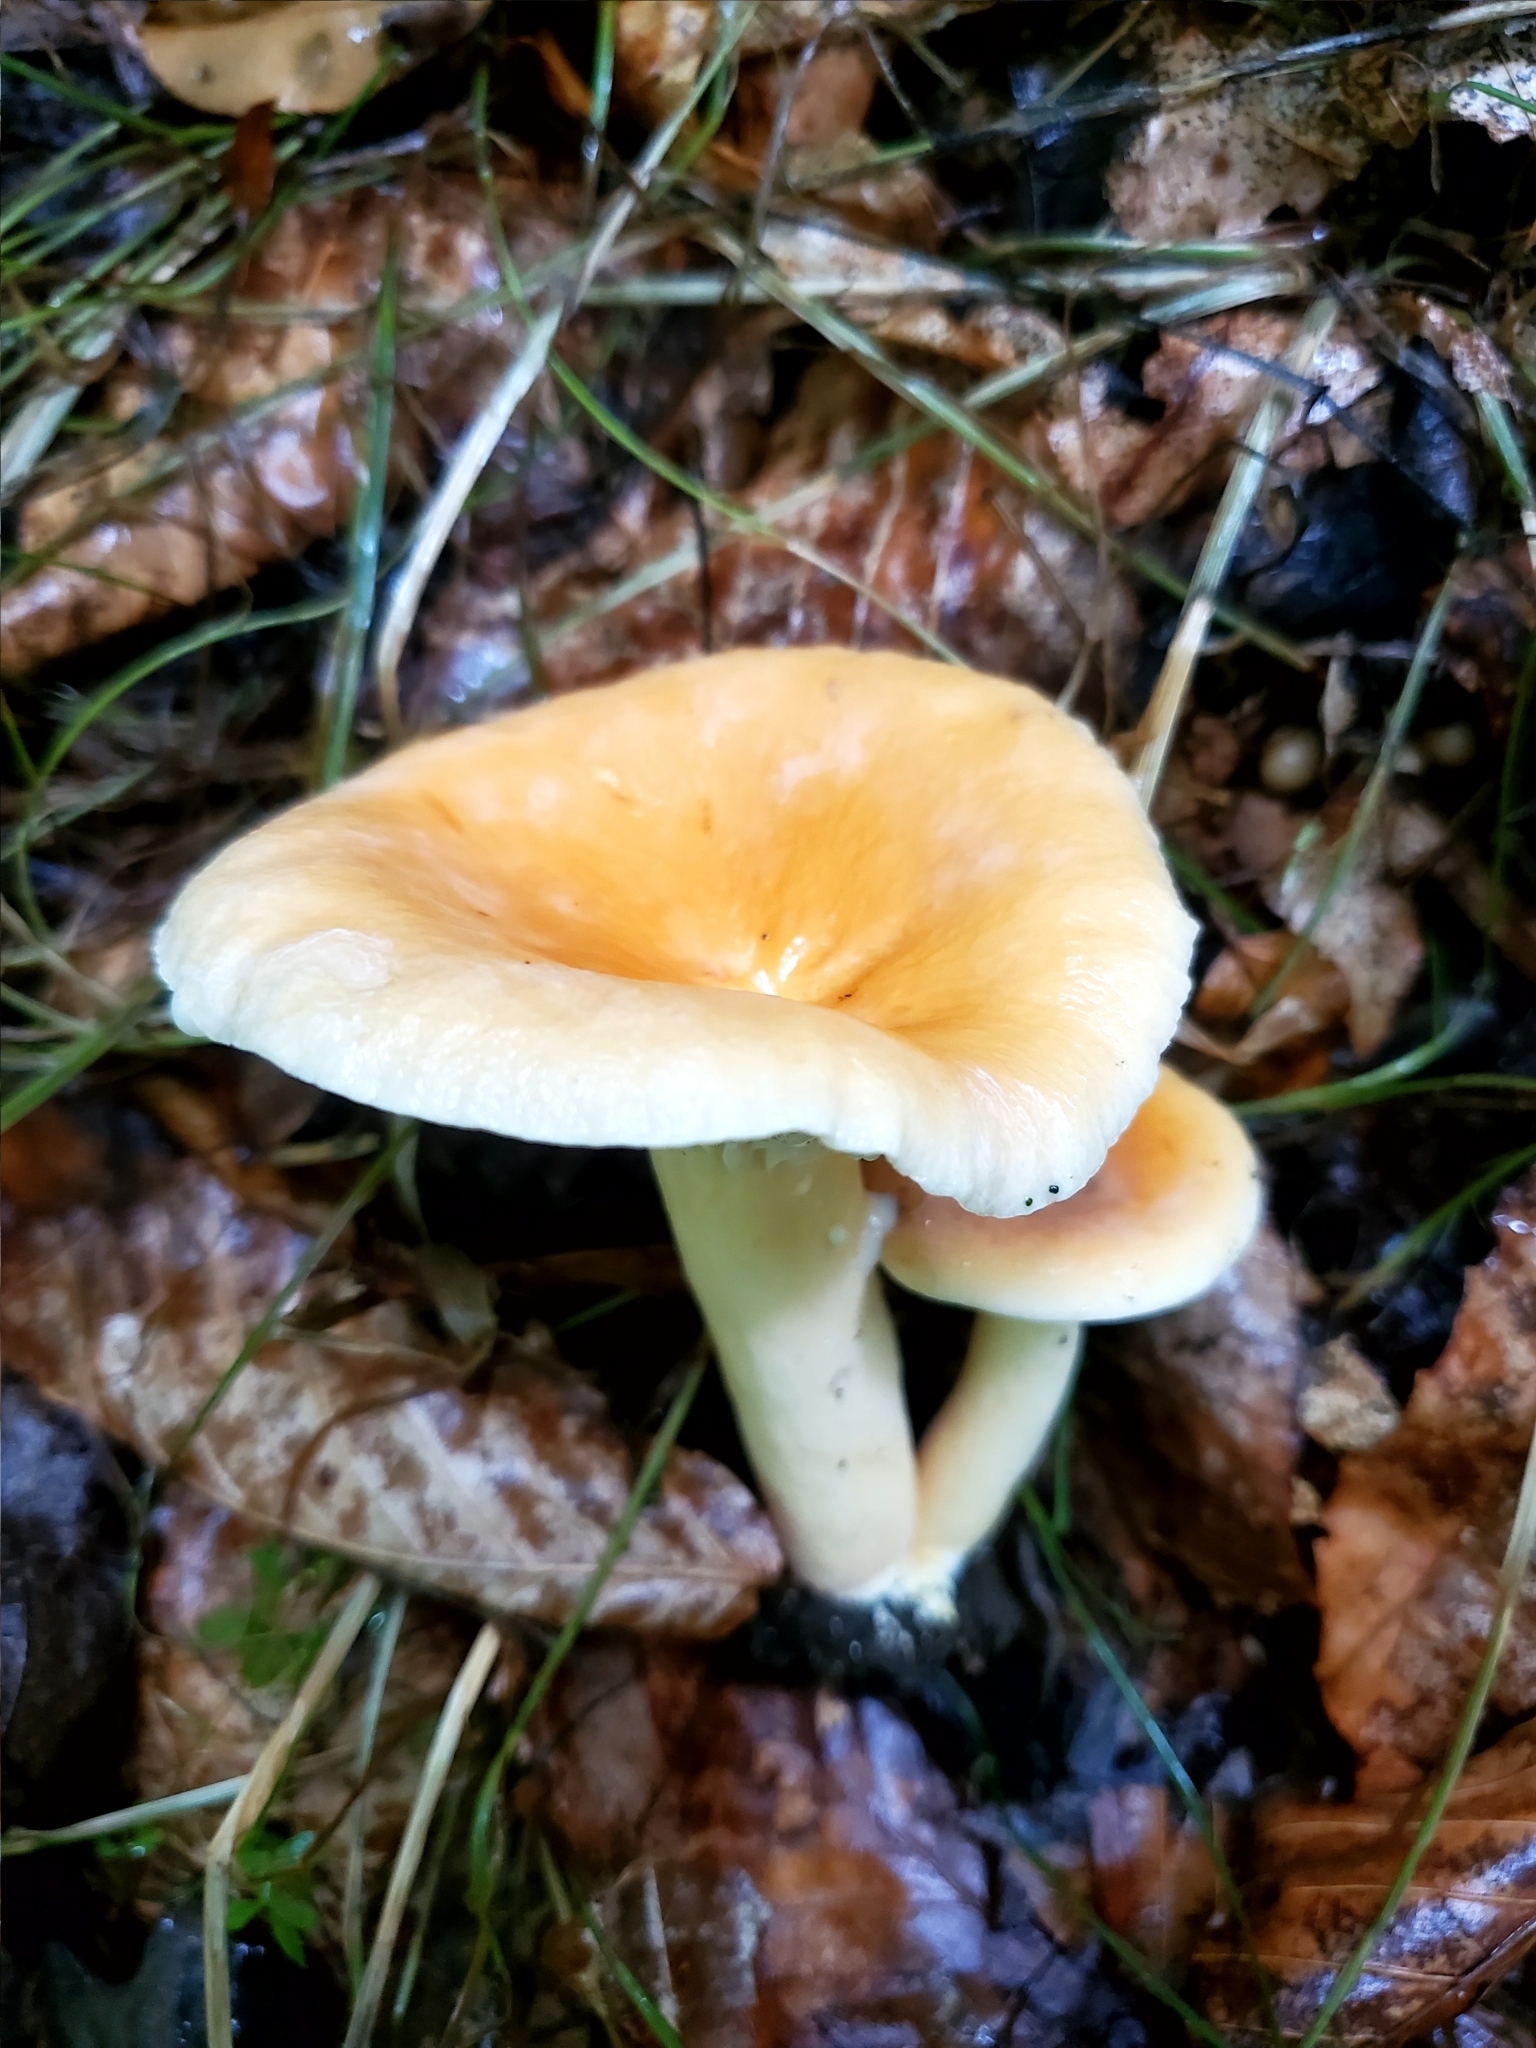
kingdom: Fungi
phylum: Basidiomycota
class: Agaricomycetes
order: Russulales
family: Russulaceae
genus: Lactarius
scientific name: Lactarius hygrophoroides
